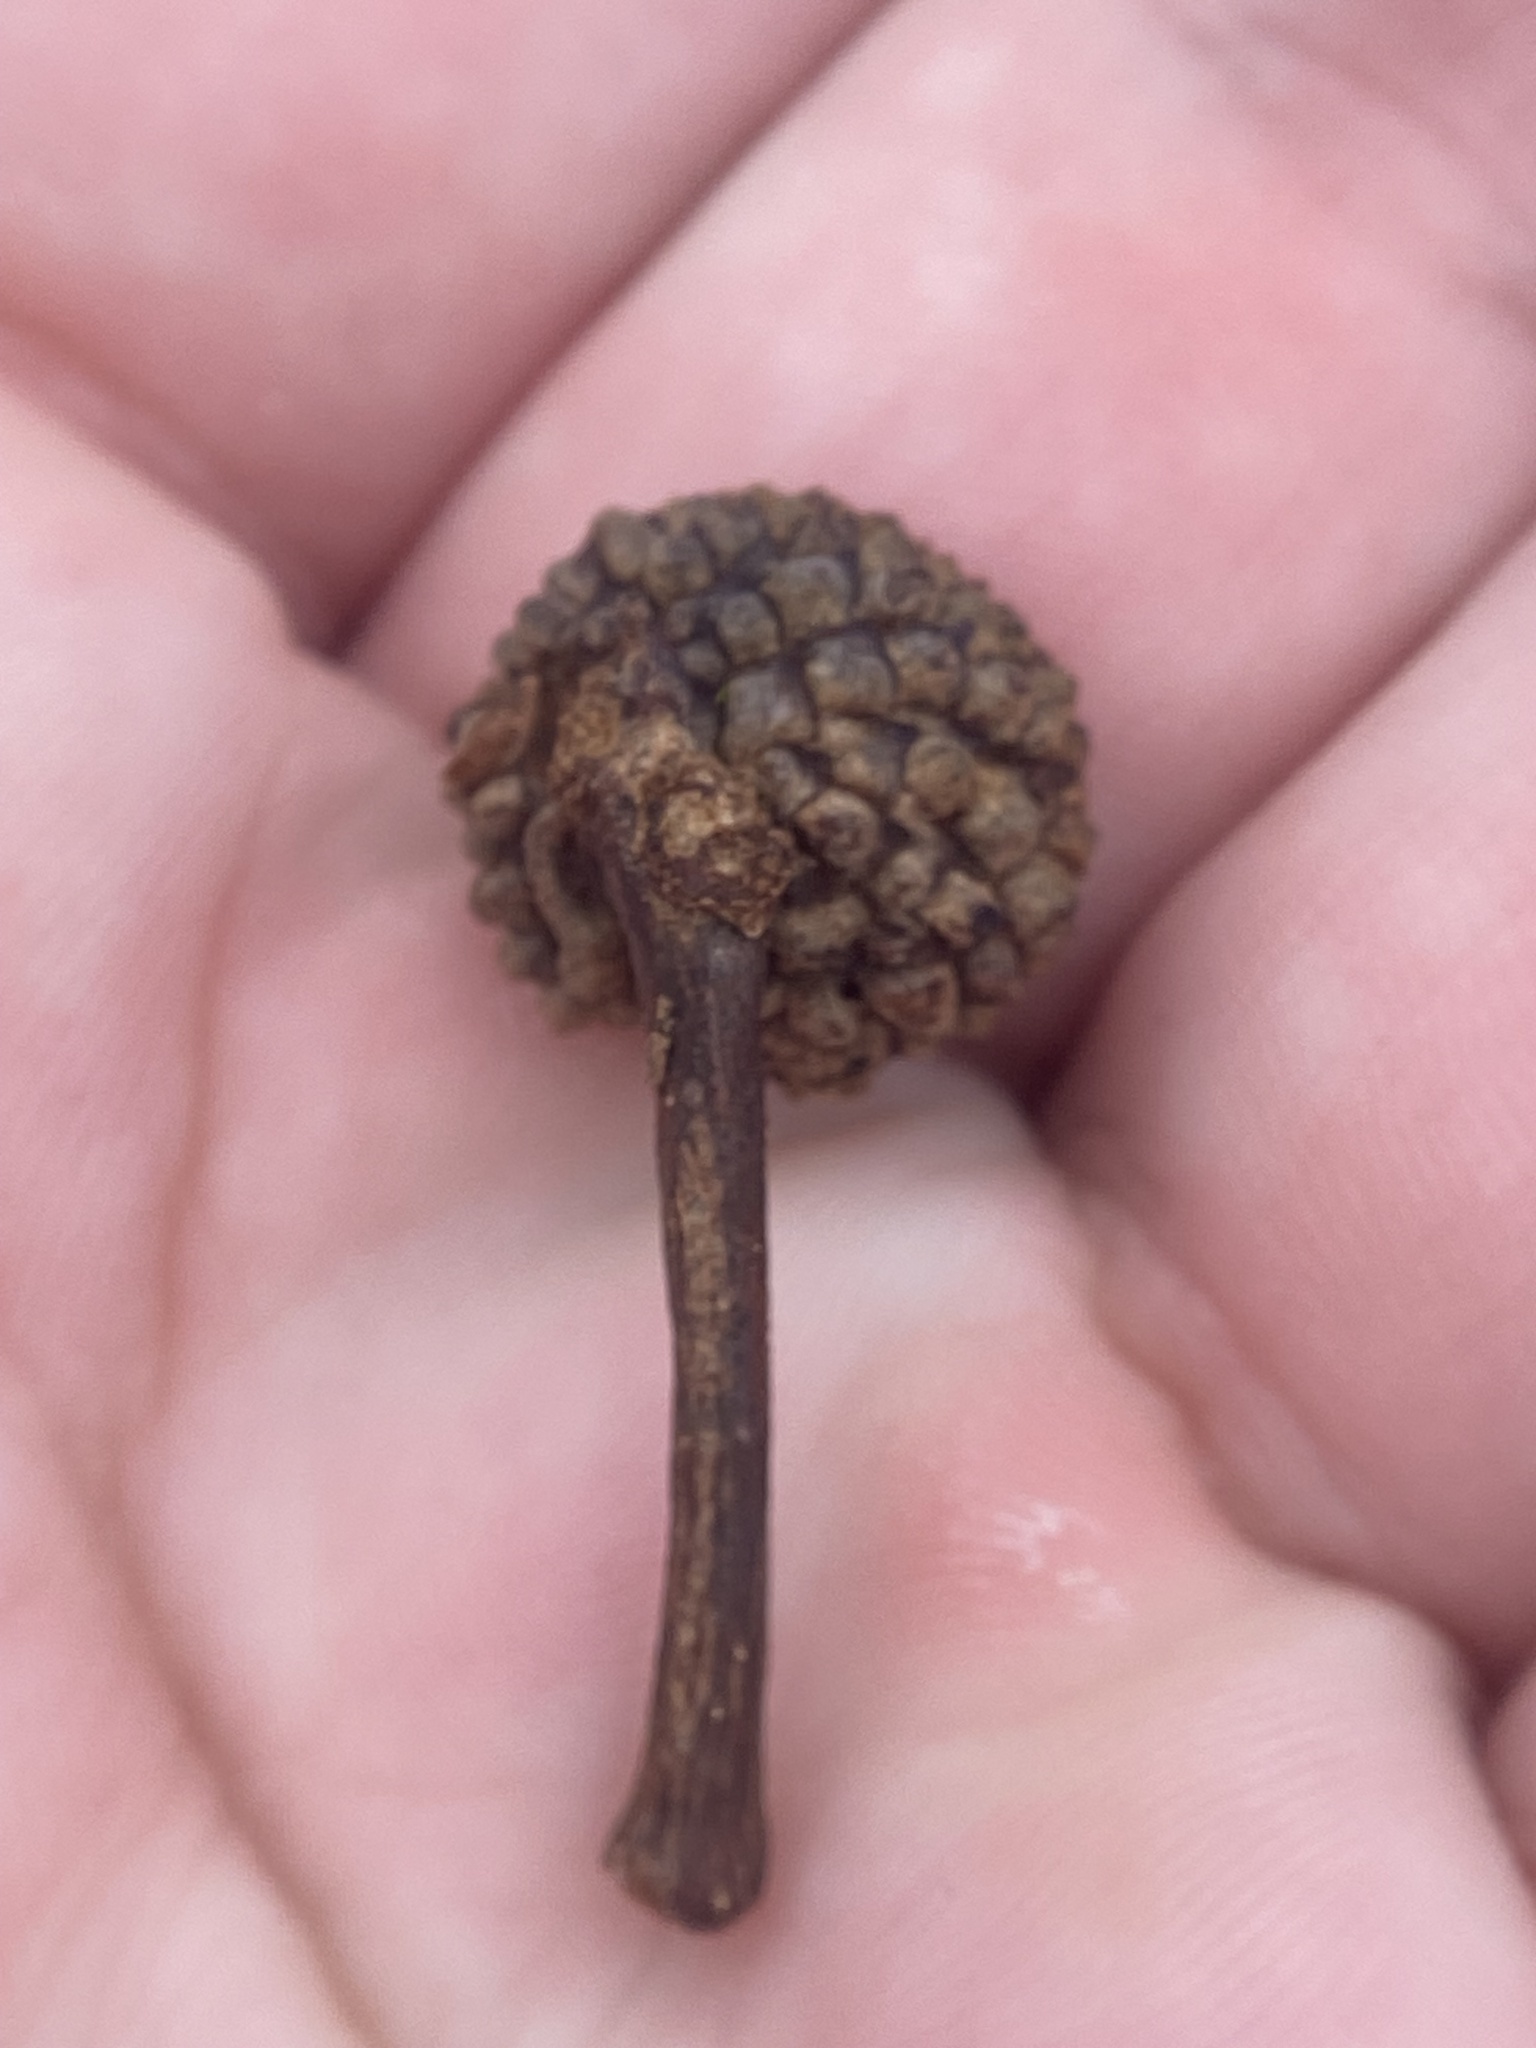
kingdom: Plantae
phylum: Tracheophyta
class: Magnoliopsida
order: Fagales
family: Fagaceae
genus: Quercus
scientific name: Quercus alba
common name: White oak
